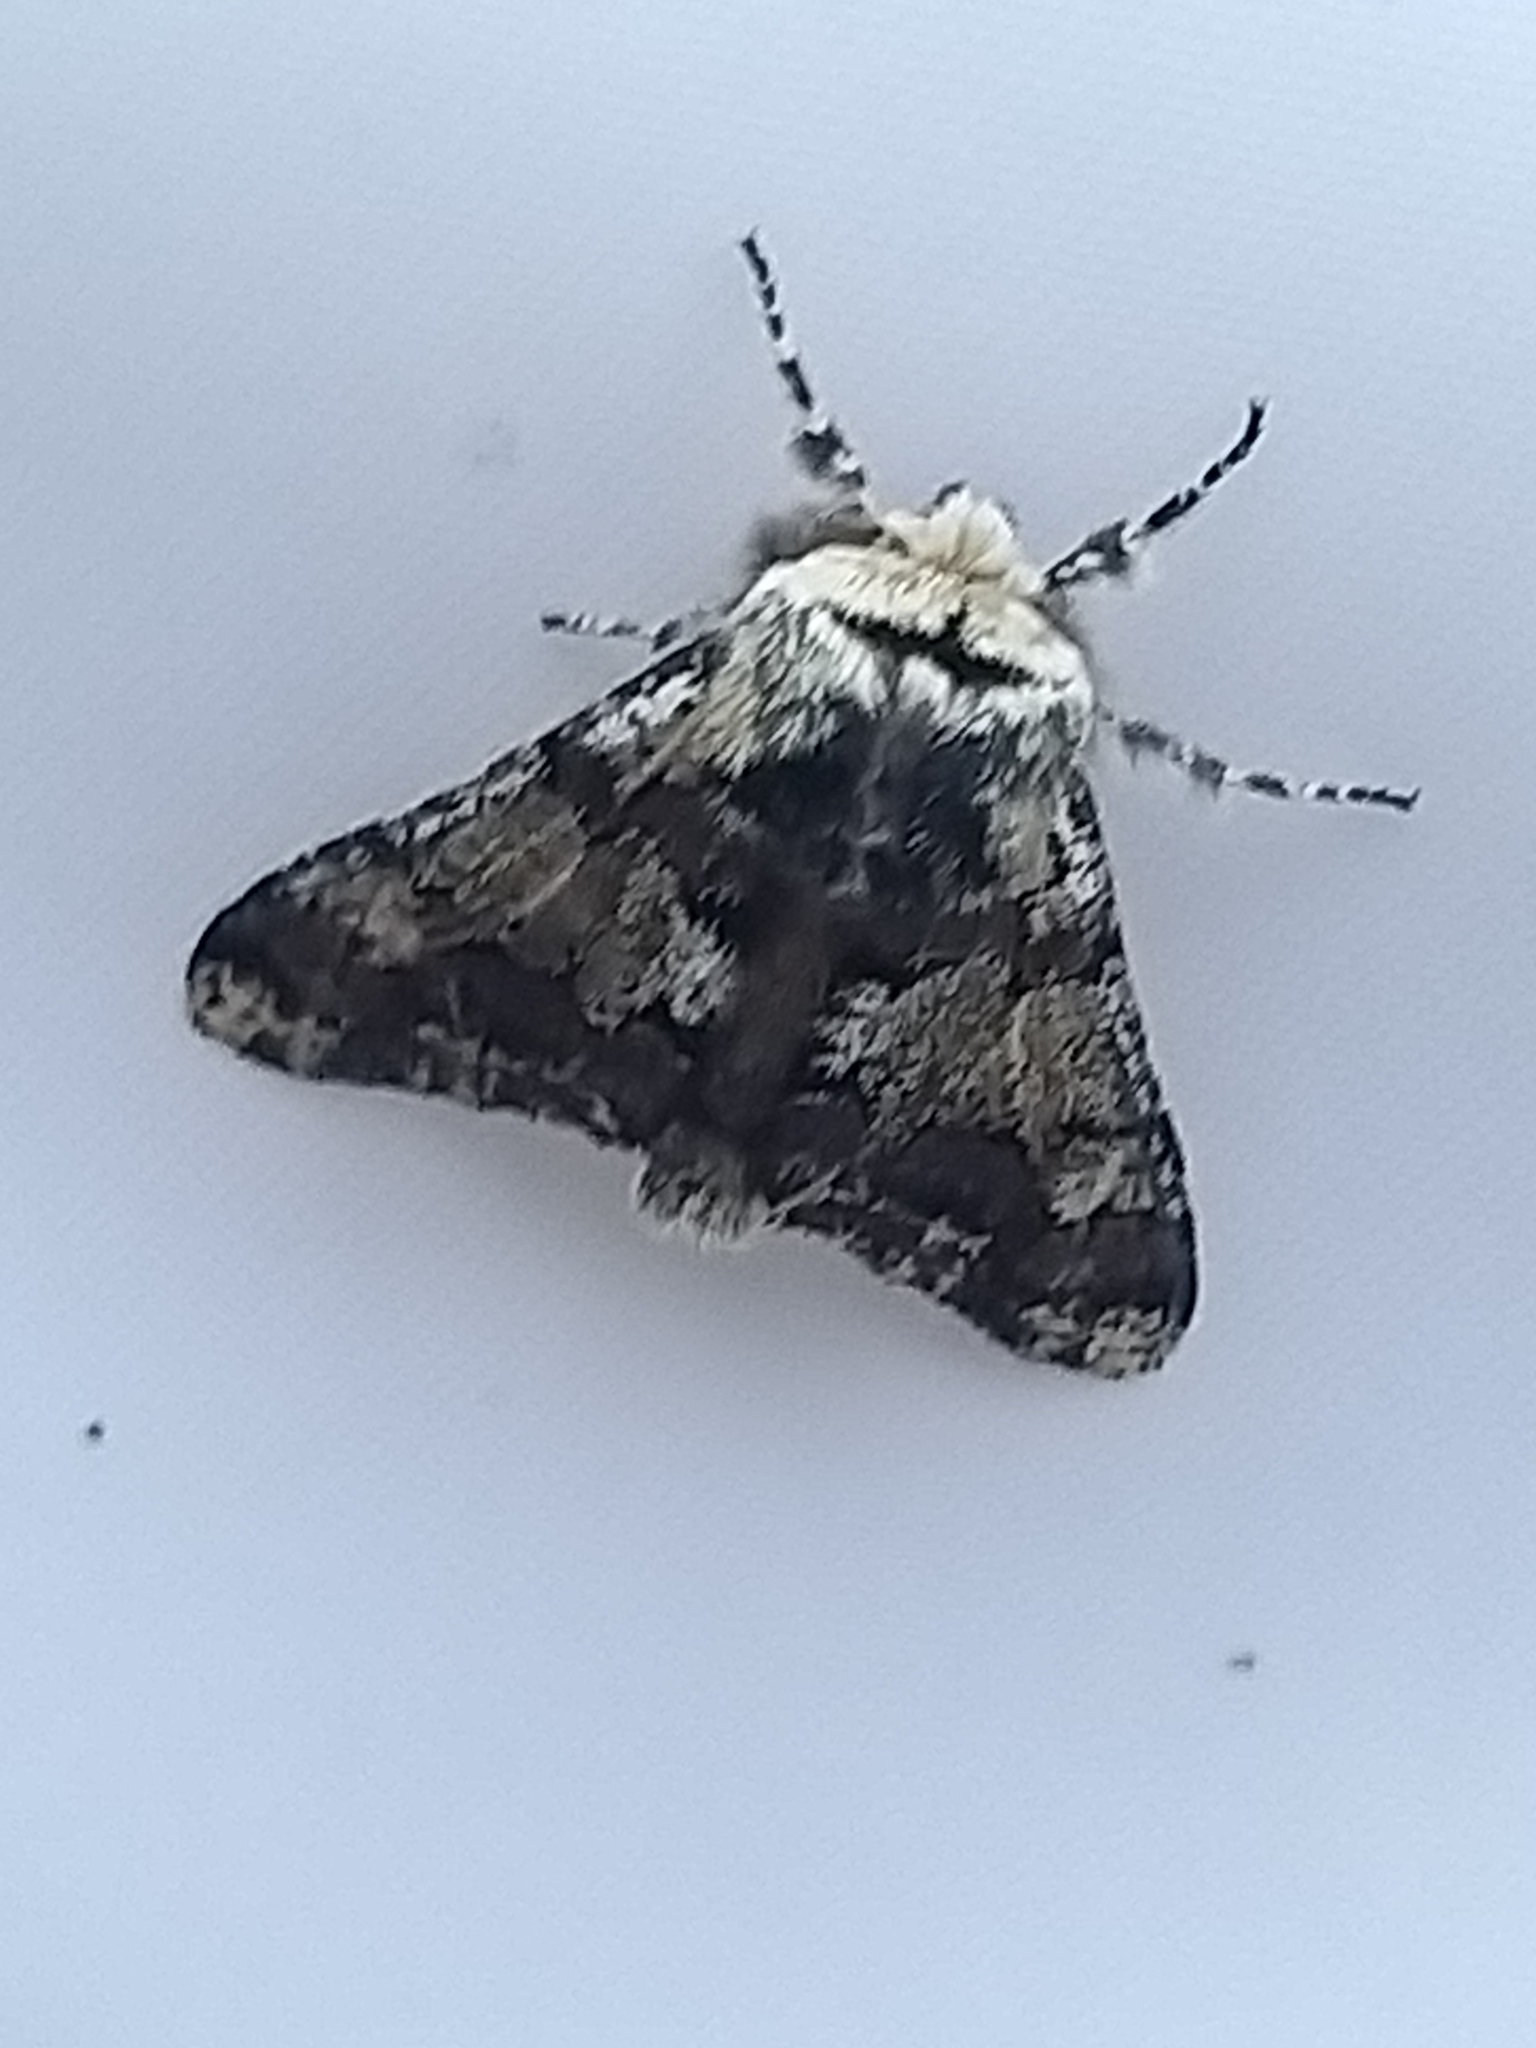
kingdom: Animalia
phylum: Arthropoda
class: Insecta
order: Lepidoptera
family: Geometridae
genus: Biston
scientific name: Biston strataria
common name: Oak beauty
